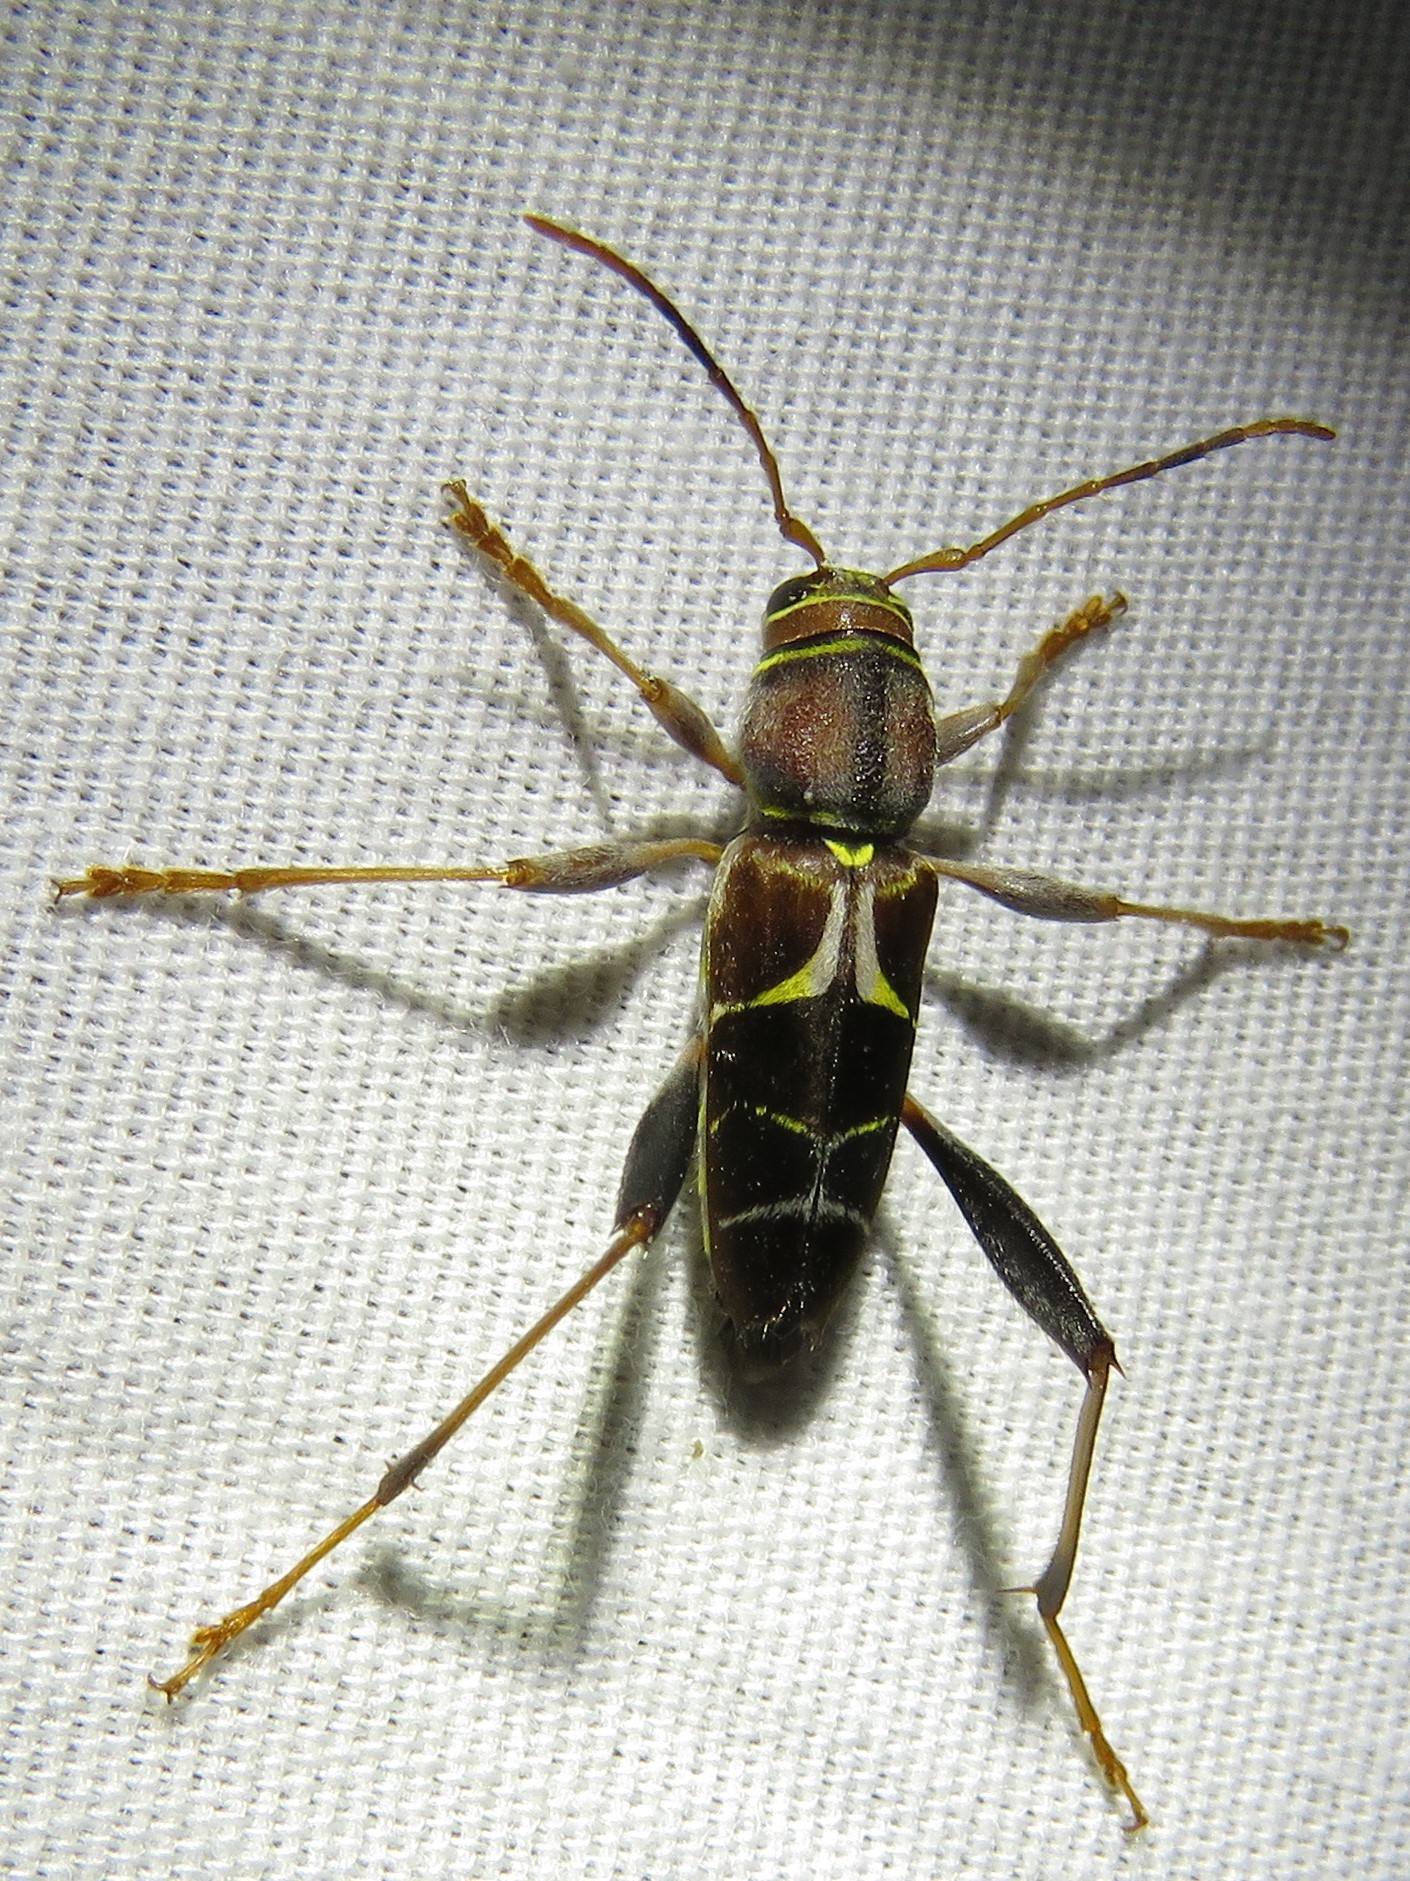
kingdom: Animalia
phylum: Arthropoda
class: Insecta
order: Coleoptera
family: Cerambycidae
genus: Neoclytus
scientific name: Neoclytus mucronatus
